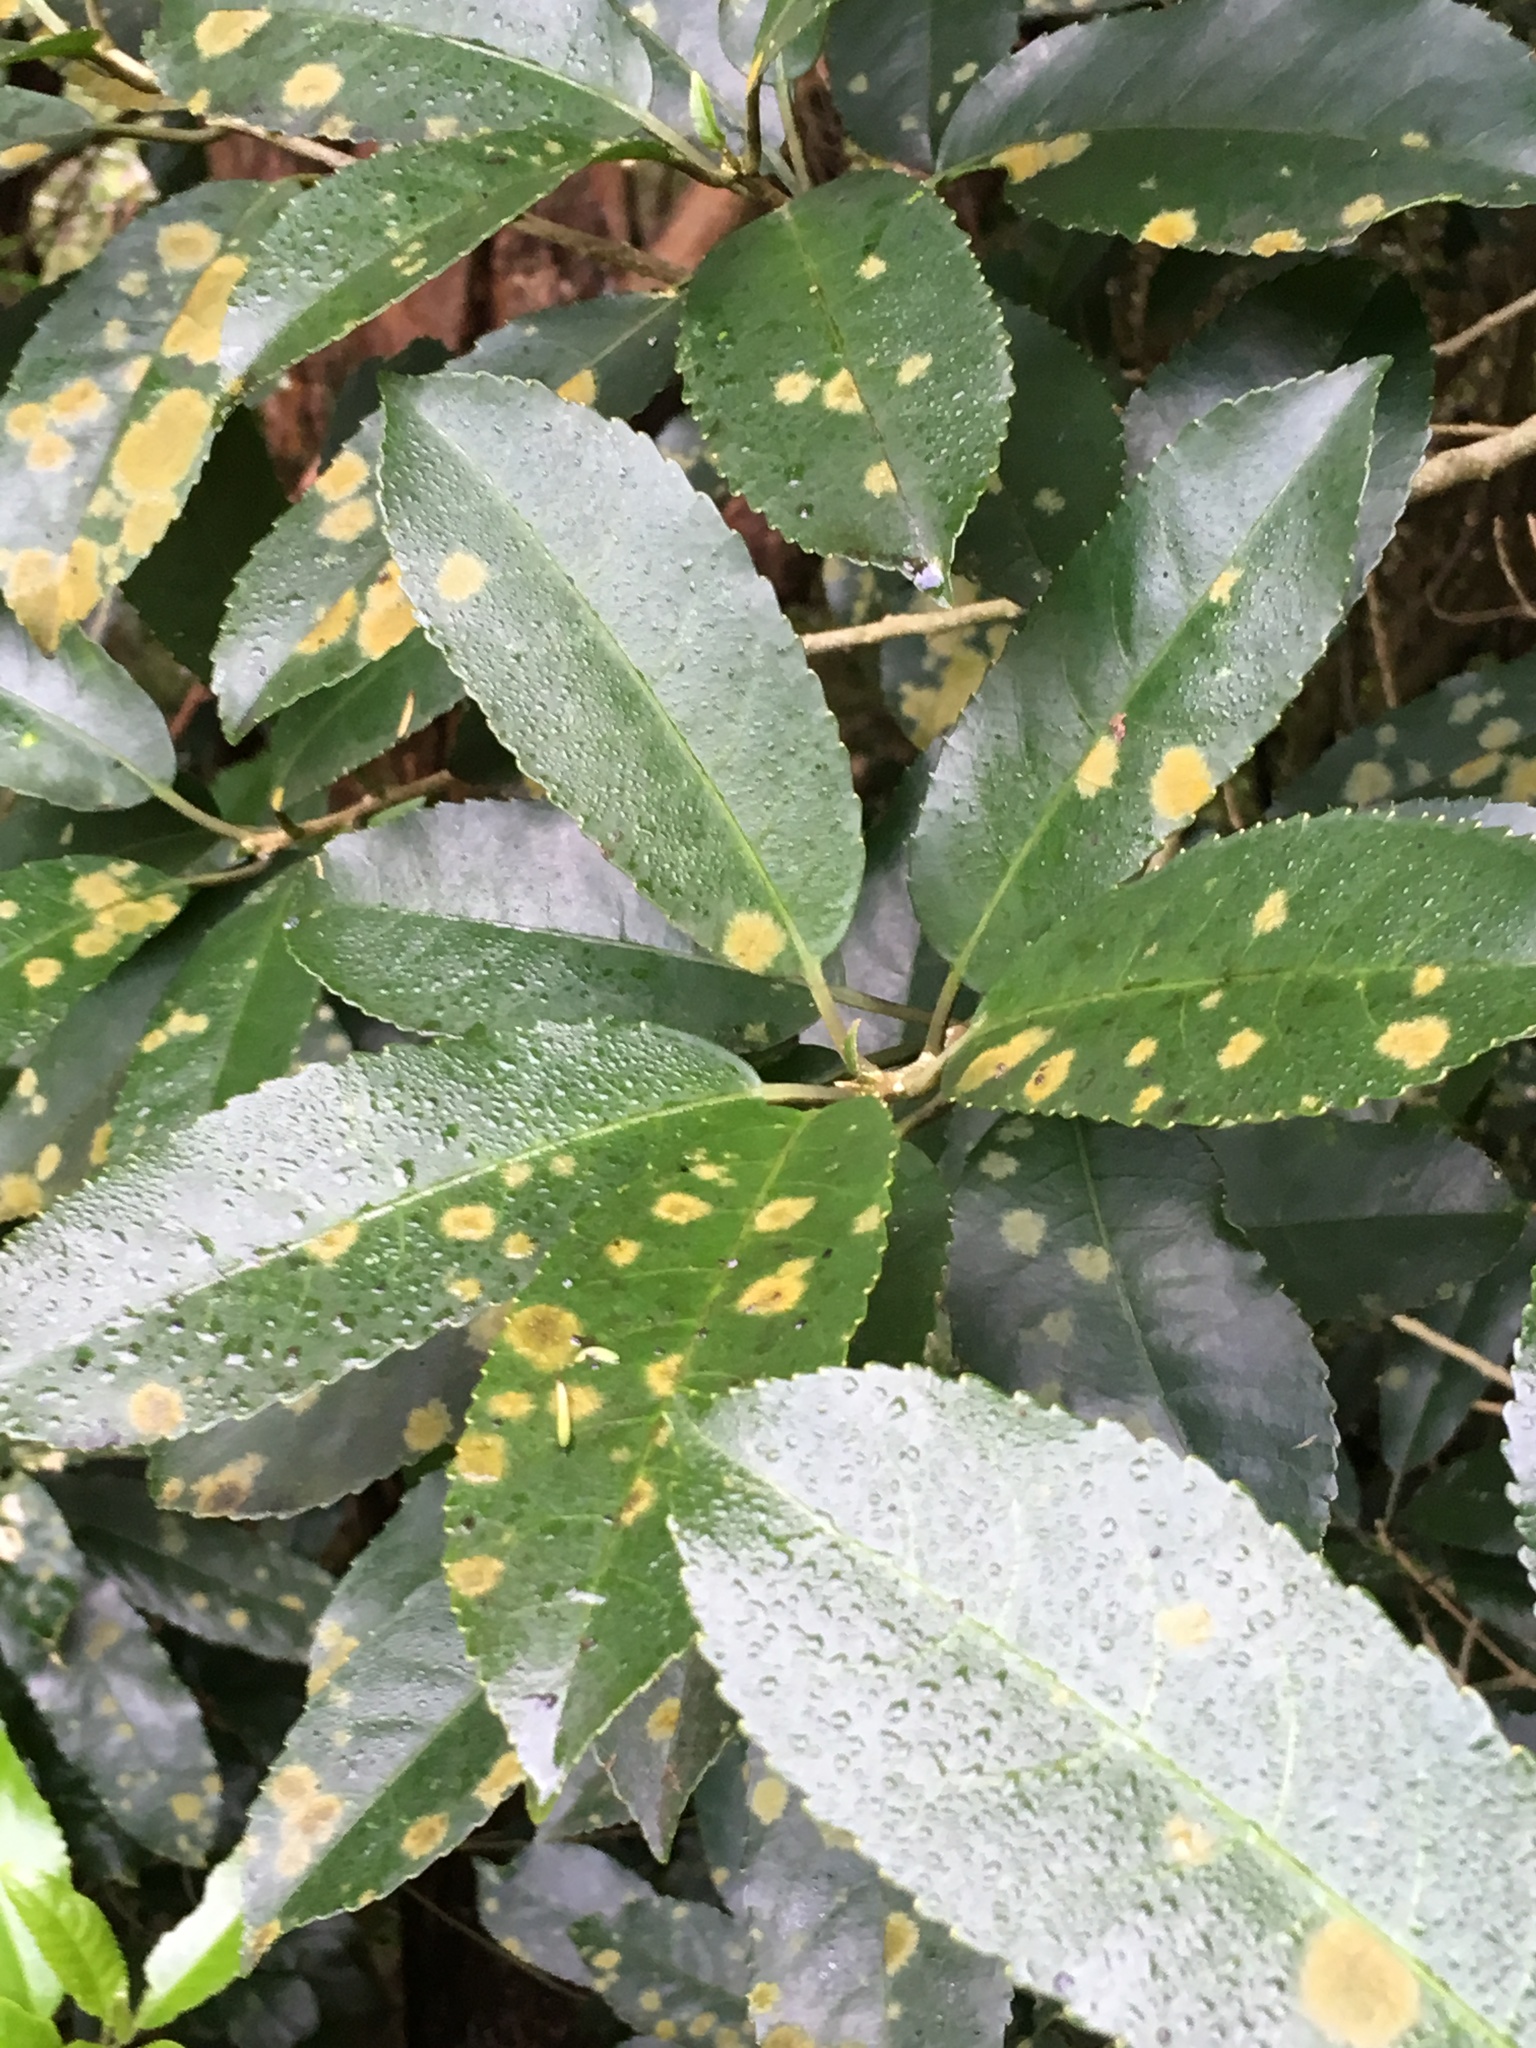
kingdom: Plantae
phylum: Tracheophyta
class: Magnoliopsida
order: Malpighiales
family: Violaceae
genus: Melicytus
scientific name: Melicytus ramiflorus
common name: Mahoe
